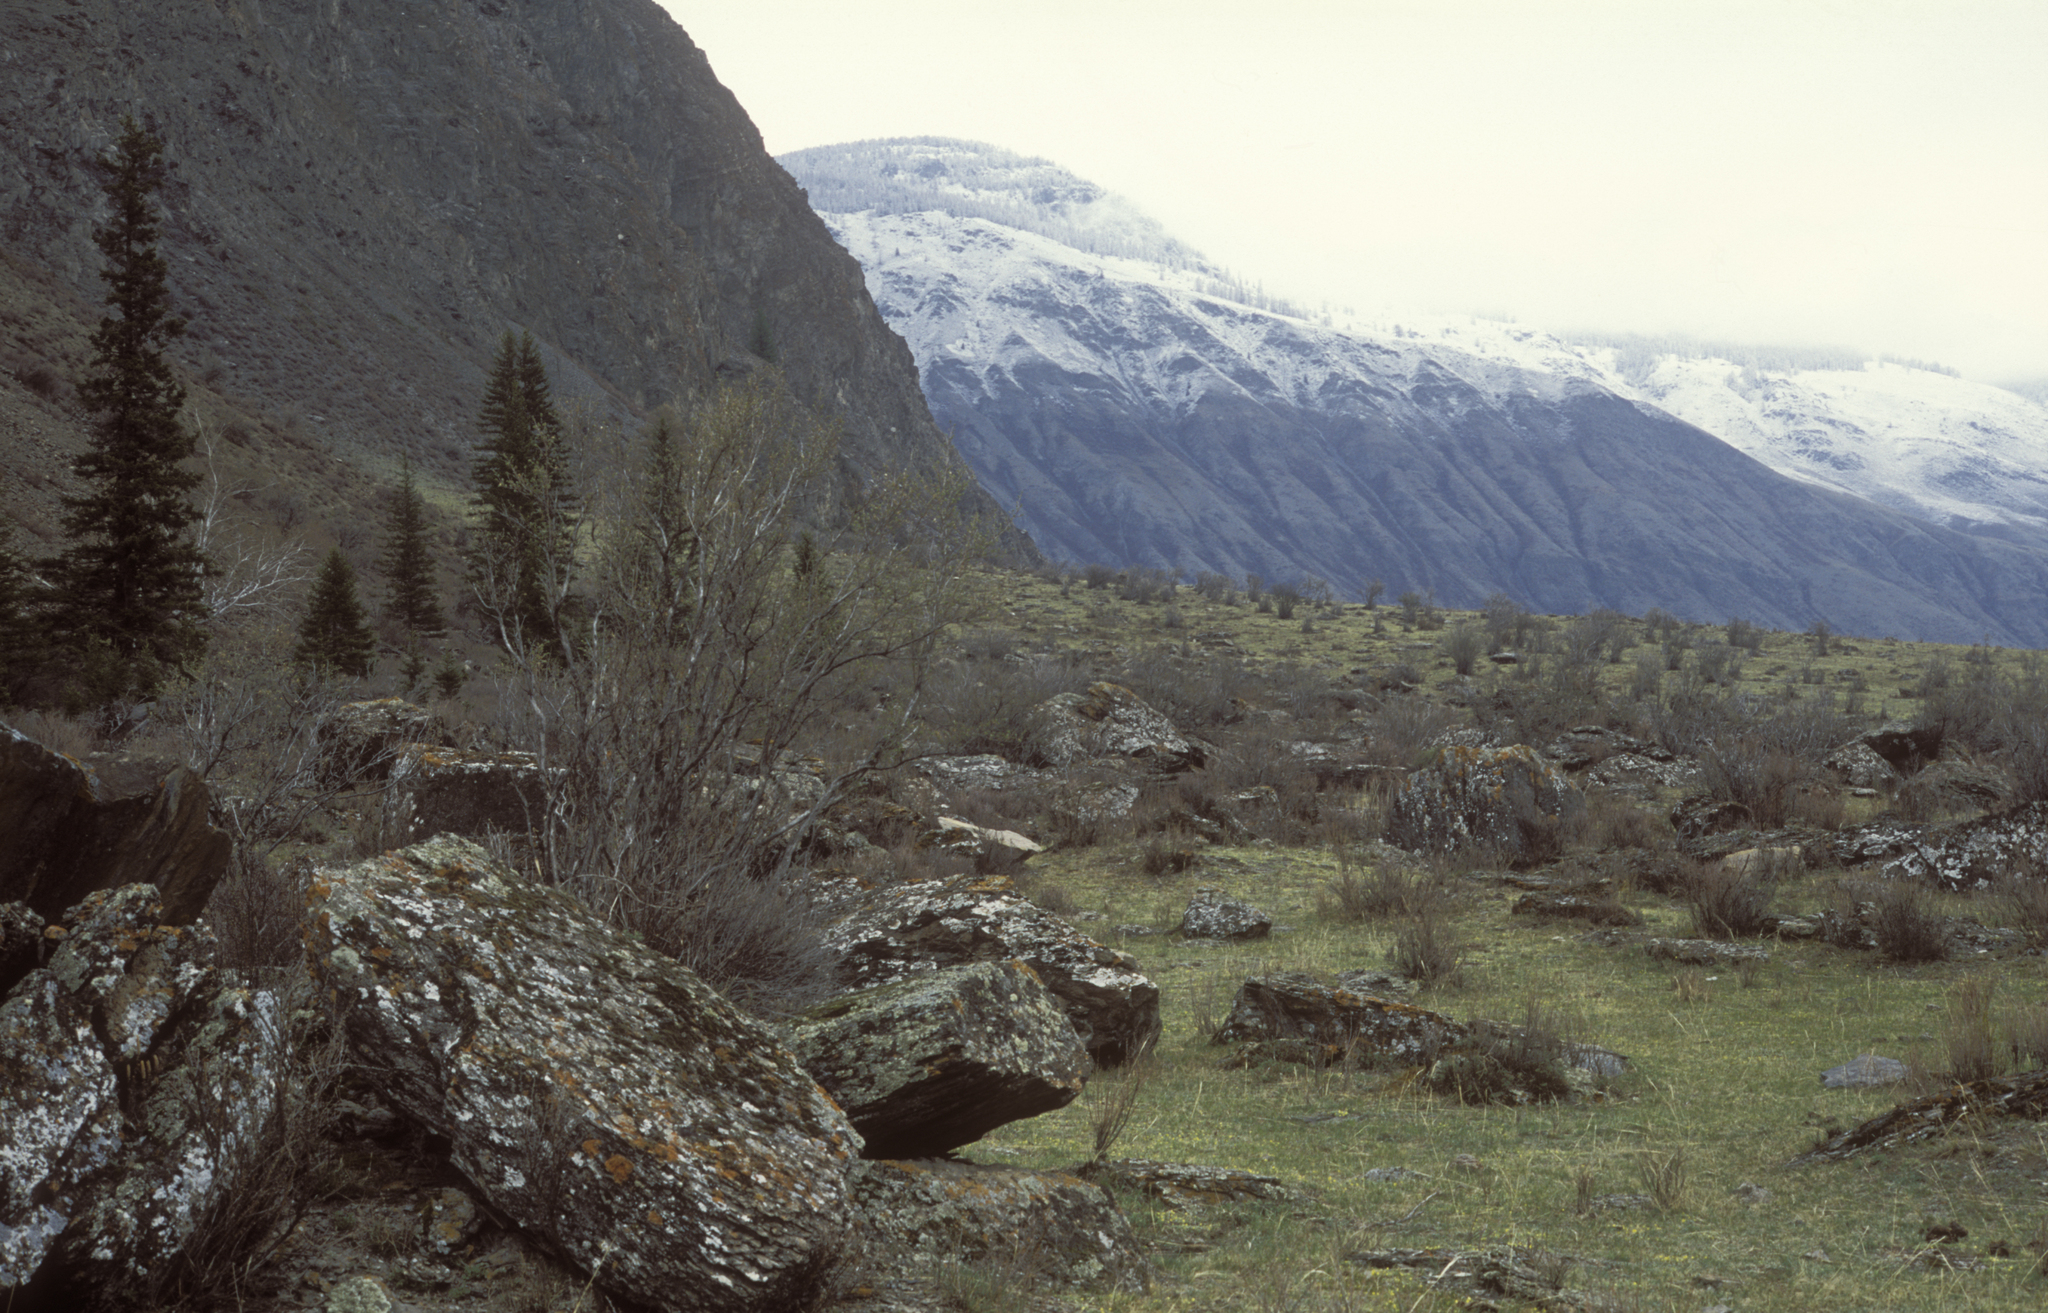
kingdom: Plantae
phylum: Tracheophyta
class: Pinopsida
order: Pinales
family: Pinaceae
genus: Picea
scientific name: Picea obovata
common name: Siberian spruce
